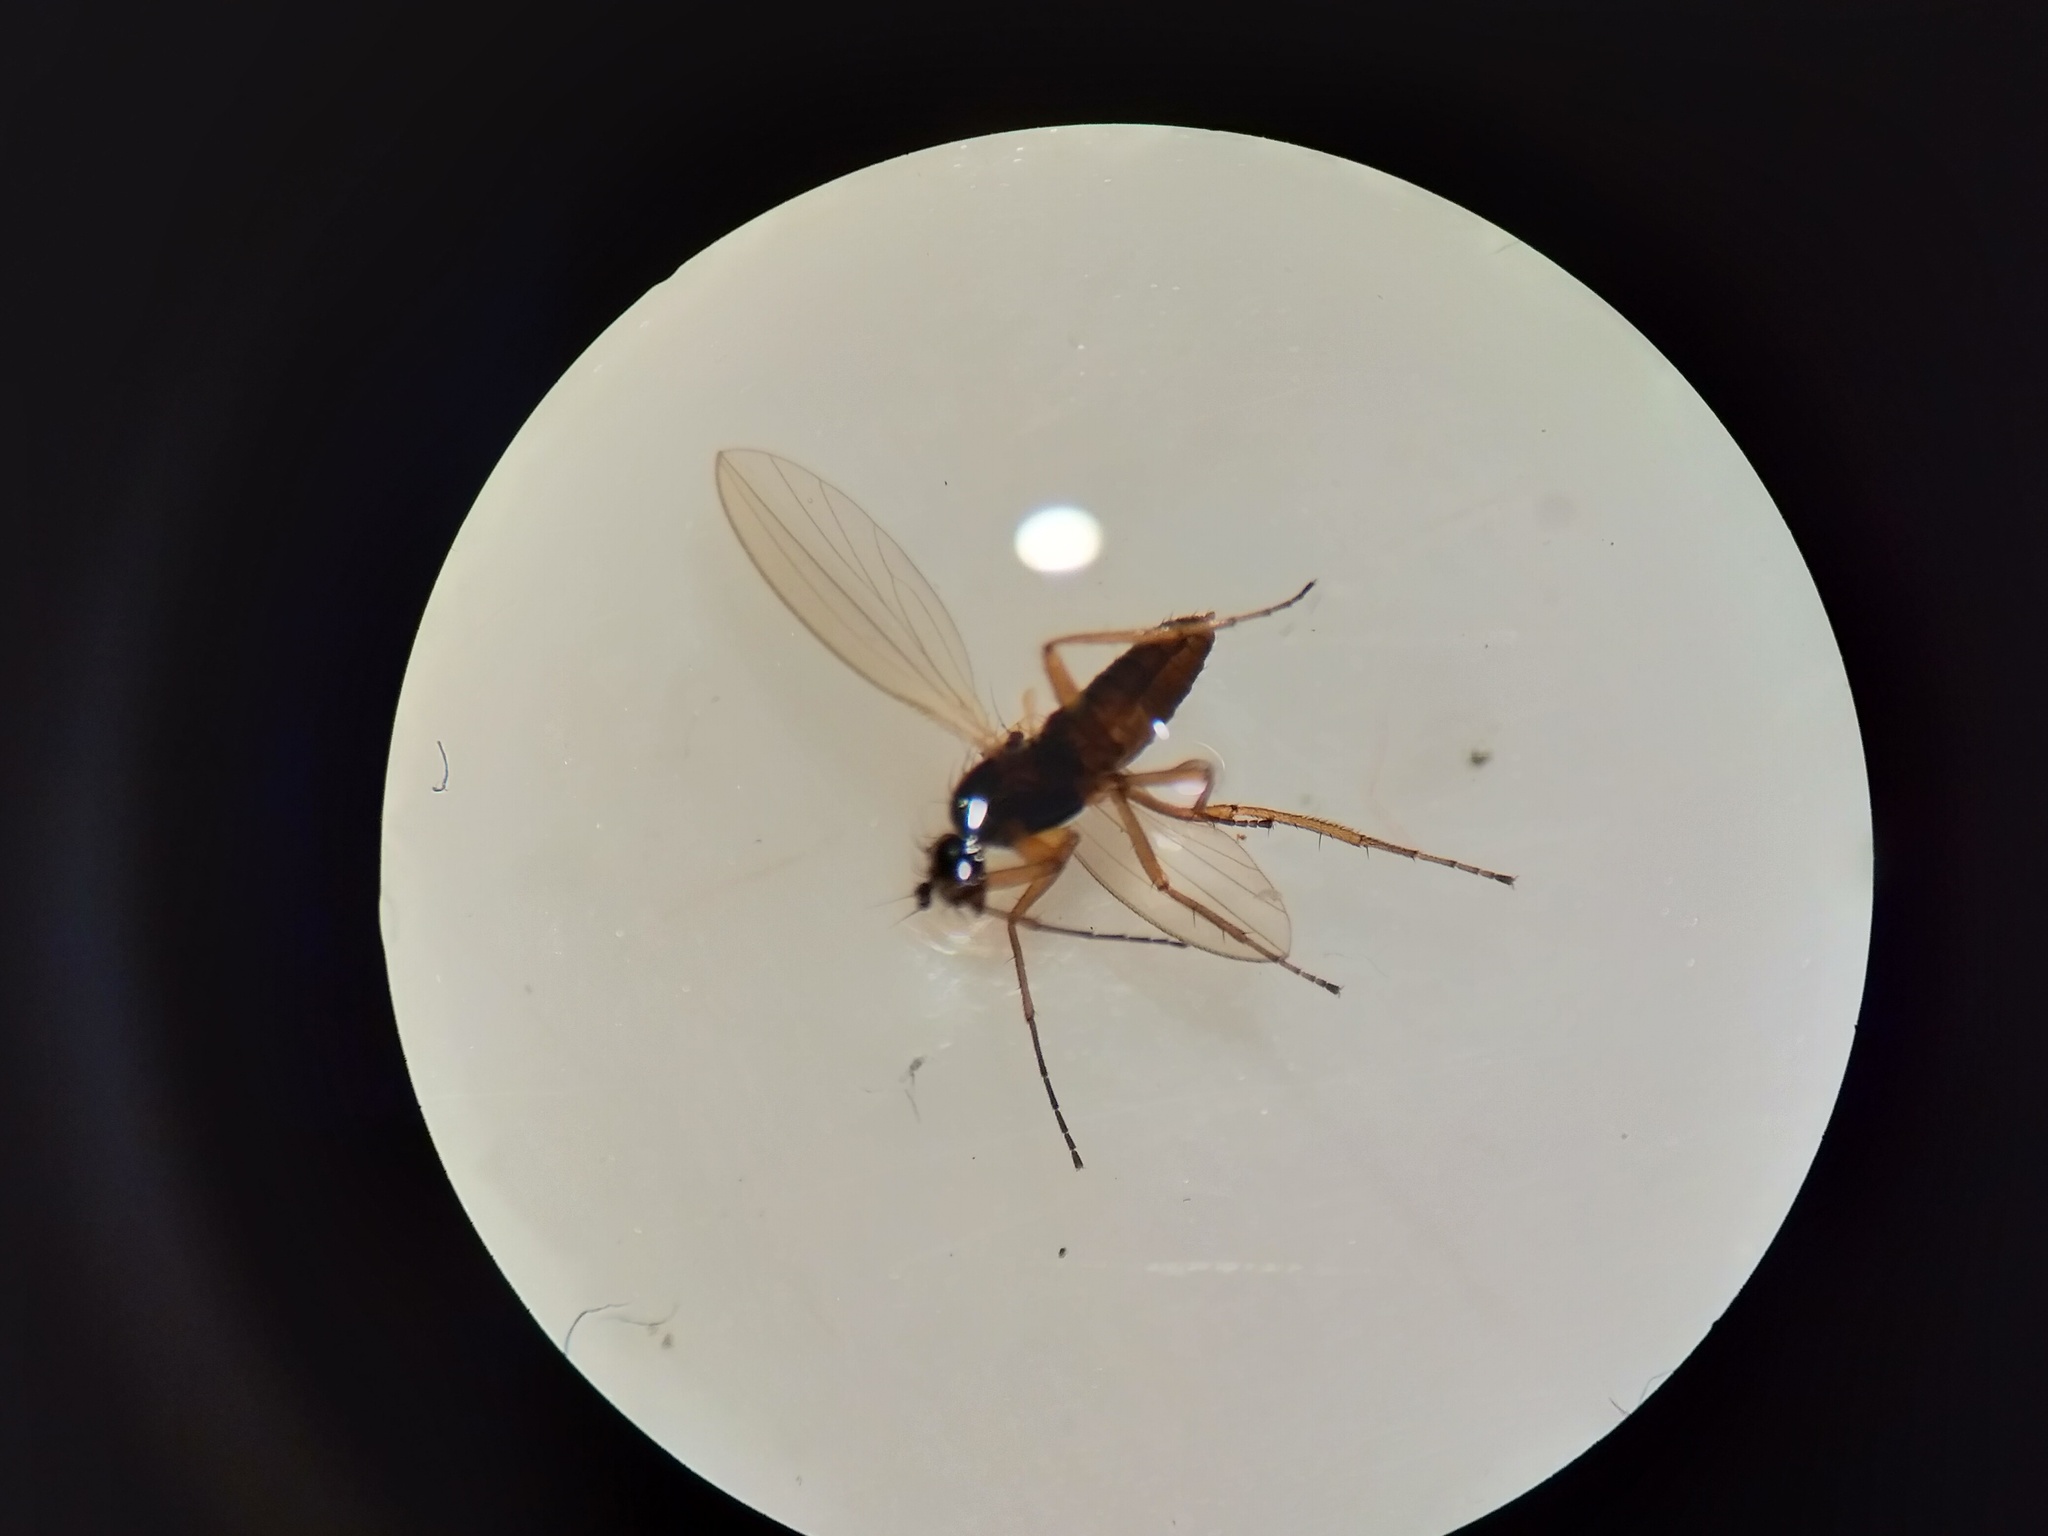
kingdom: Animalia
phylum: Arthropoda
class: Insecta
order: Diptera
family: Lonchopteridae
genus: Lonchoptera
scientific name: Lonchoptera bifurcata
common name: Spear-winged fly
